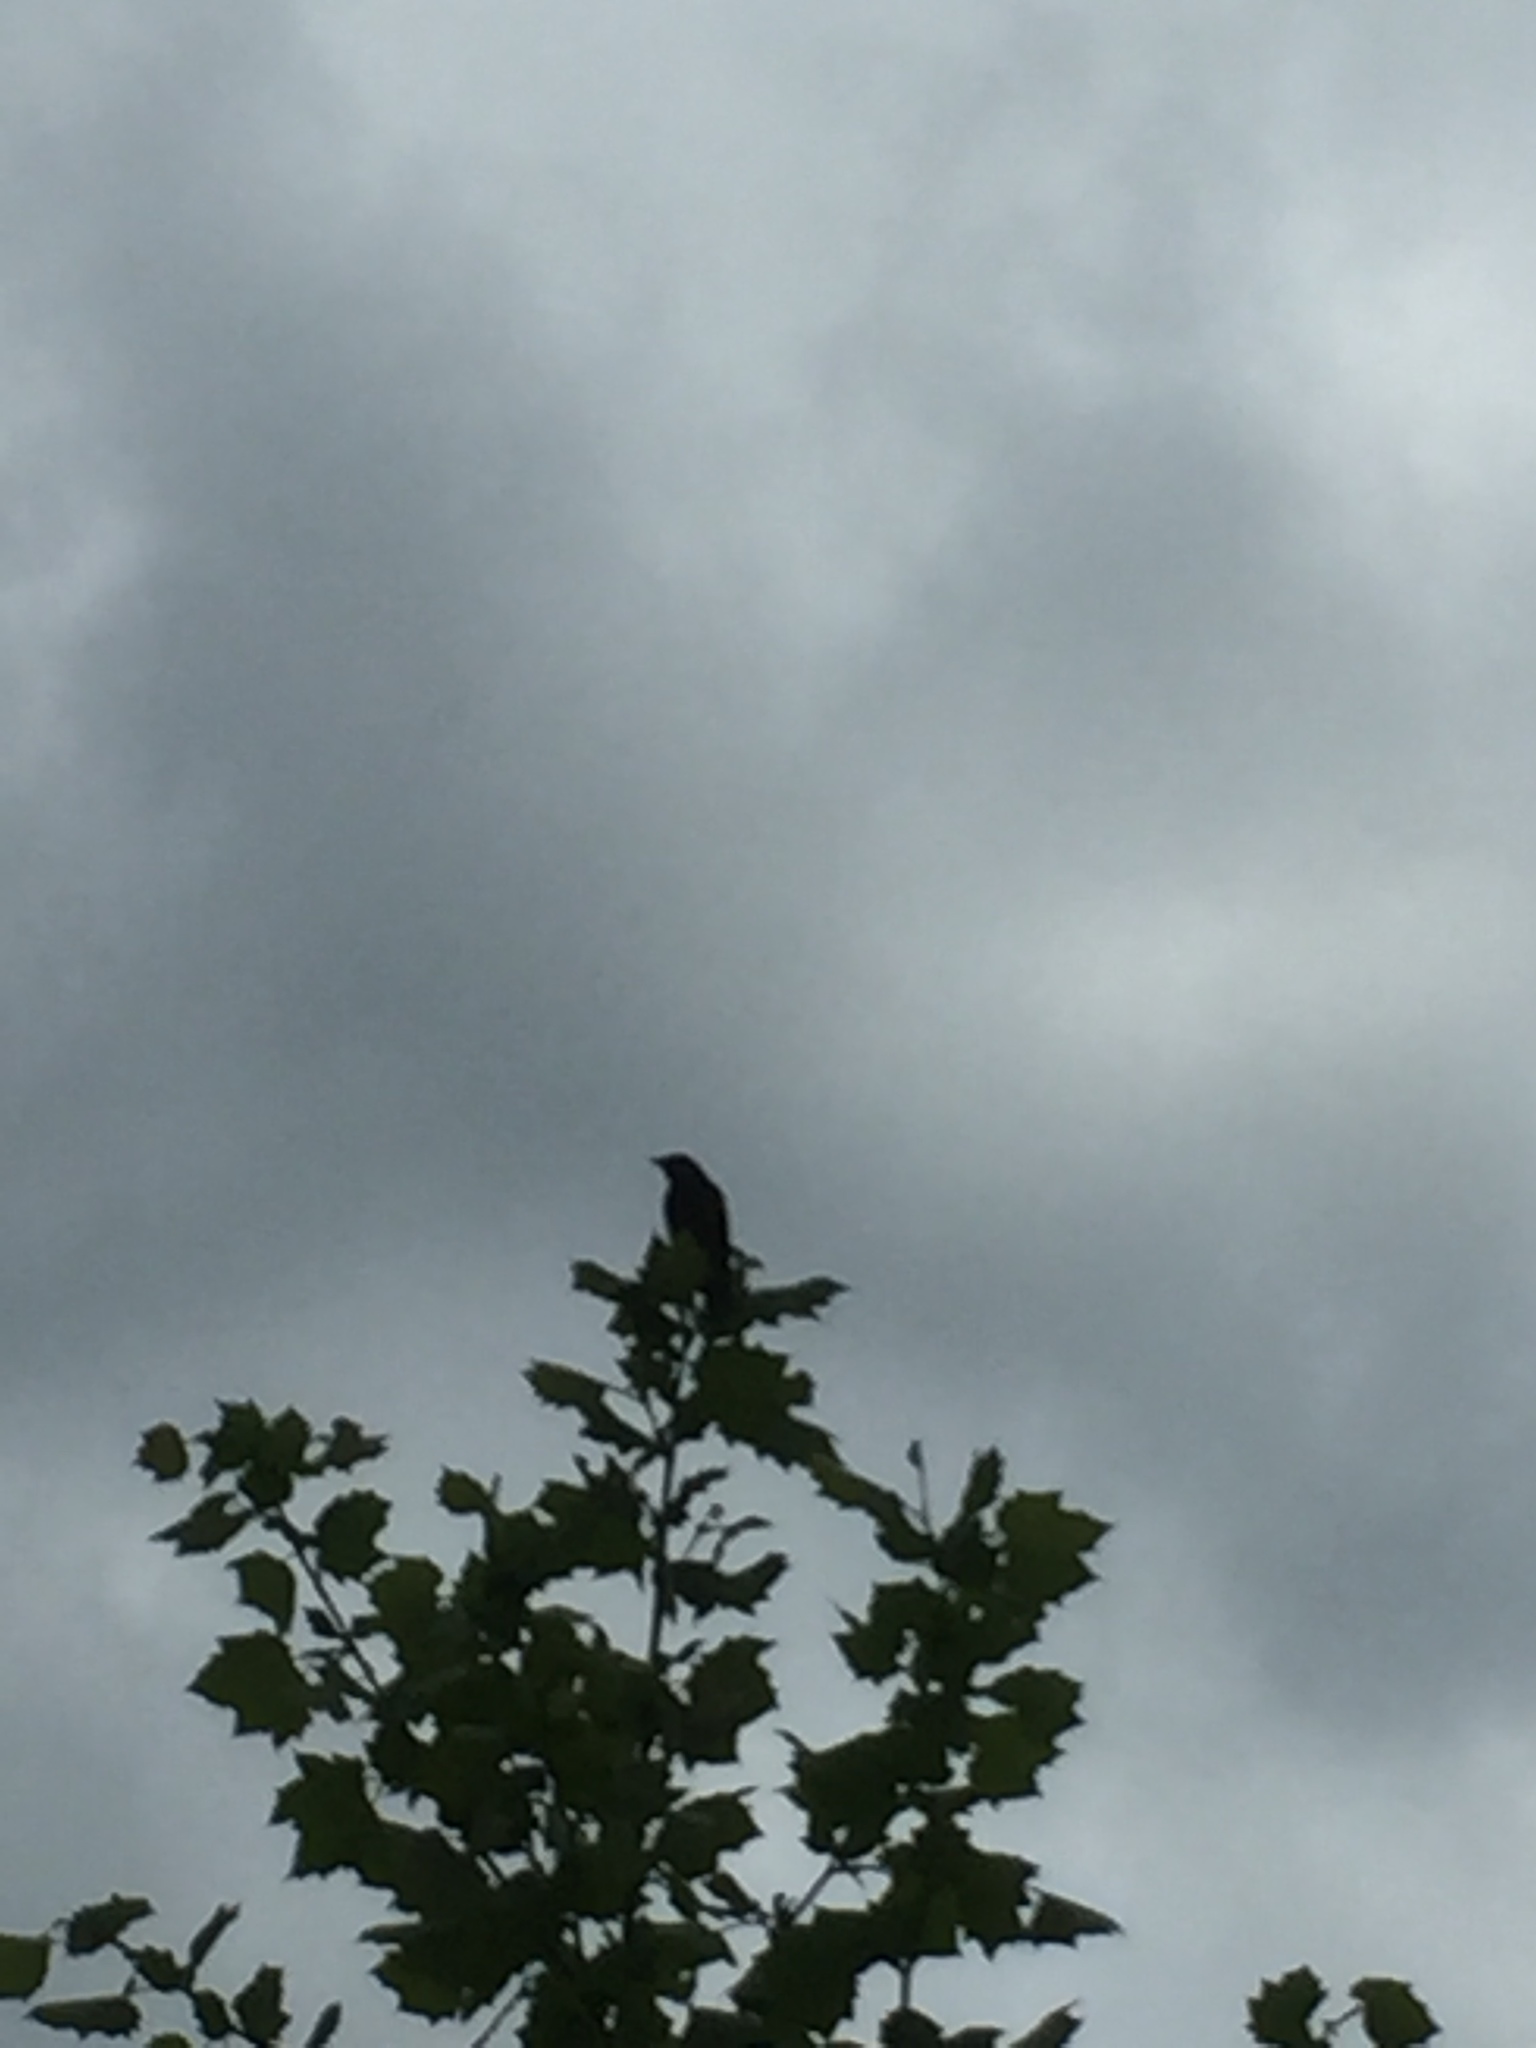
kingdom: Animalia
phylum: Chordata
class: Aves
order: Passeriformes
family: Icteridae
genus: Agelaius
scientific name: Agelaius phoeniceus
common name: Red-winged blackbird
